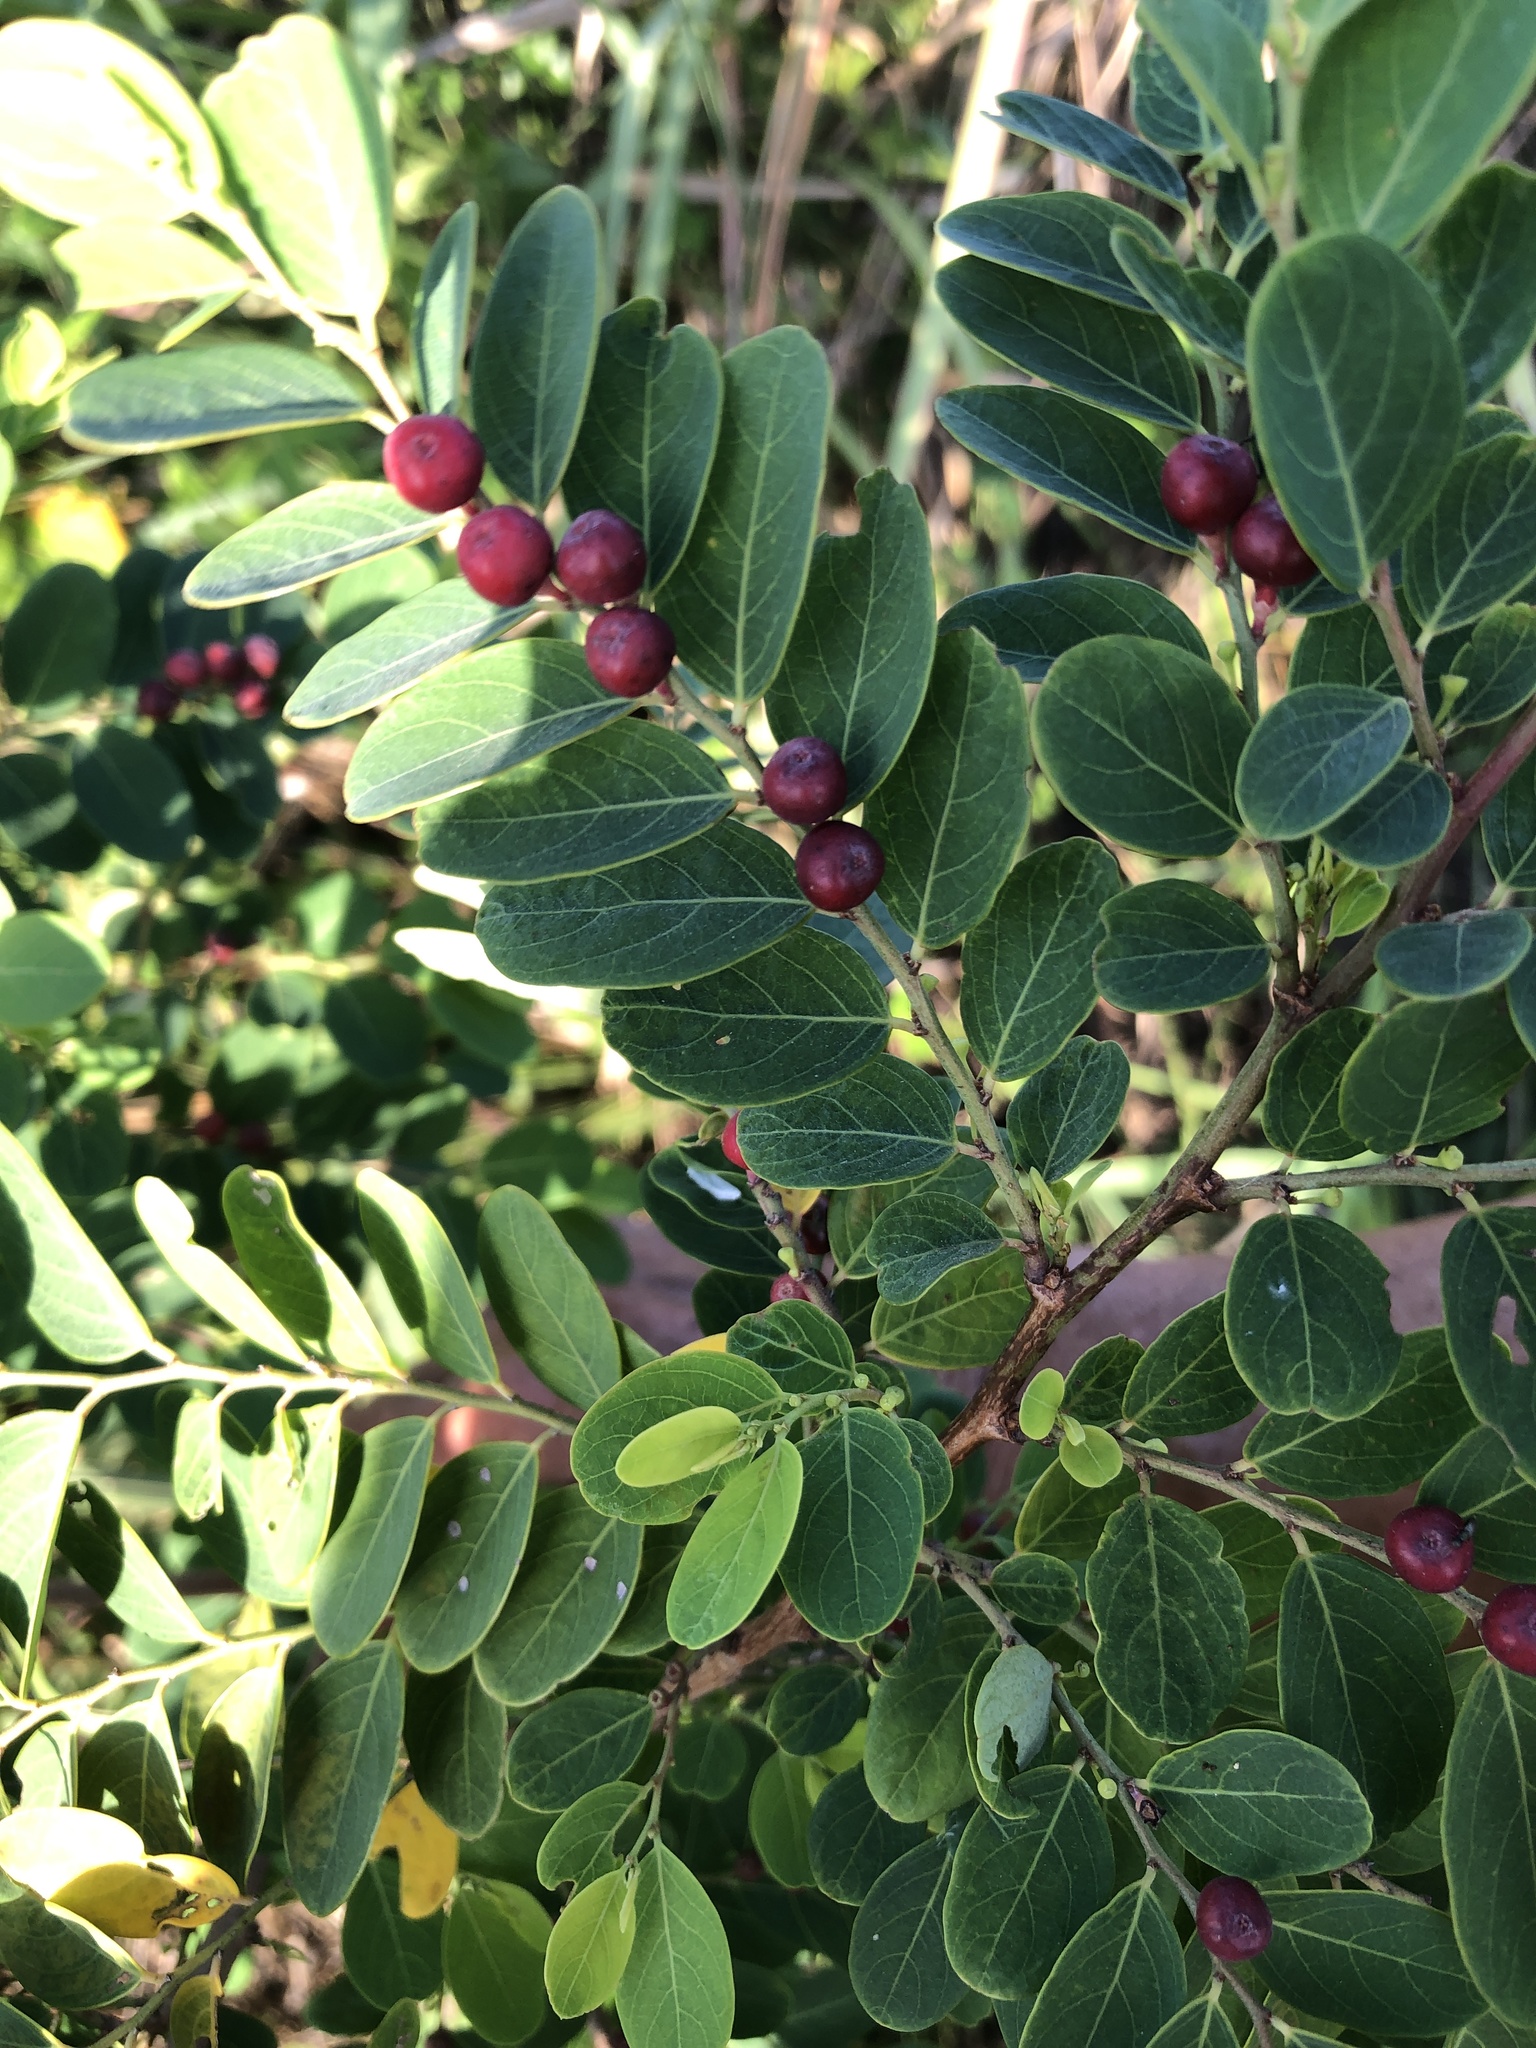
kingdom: Plantae
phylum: Tracheophyta
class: Magnoliopsida
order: Malpighiales
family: Phyllanthaceae
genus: Breynia
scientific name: Breynia vitis-idaea
